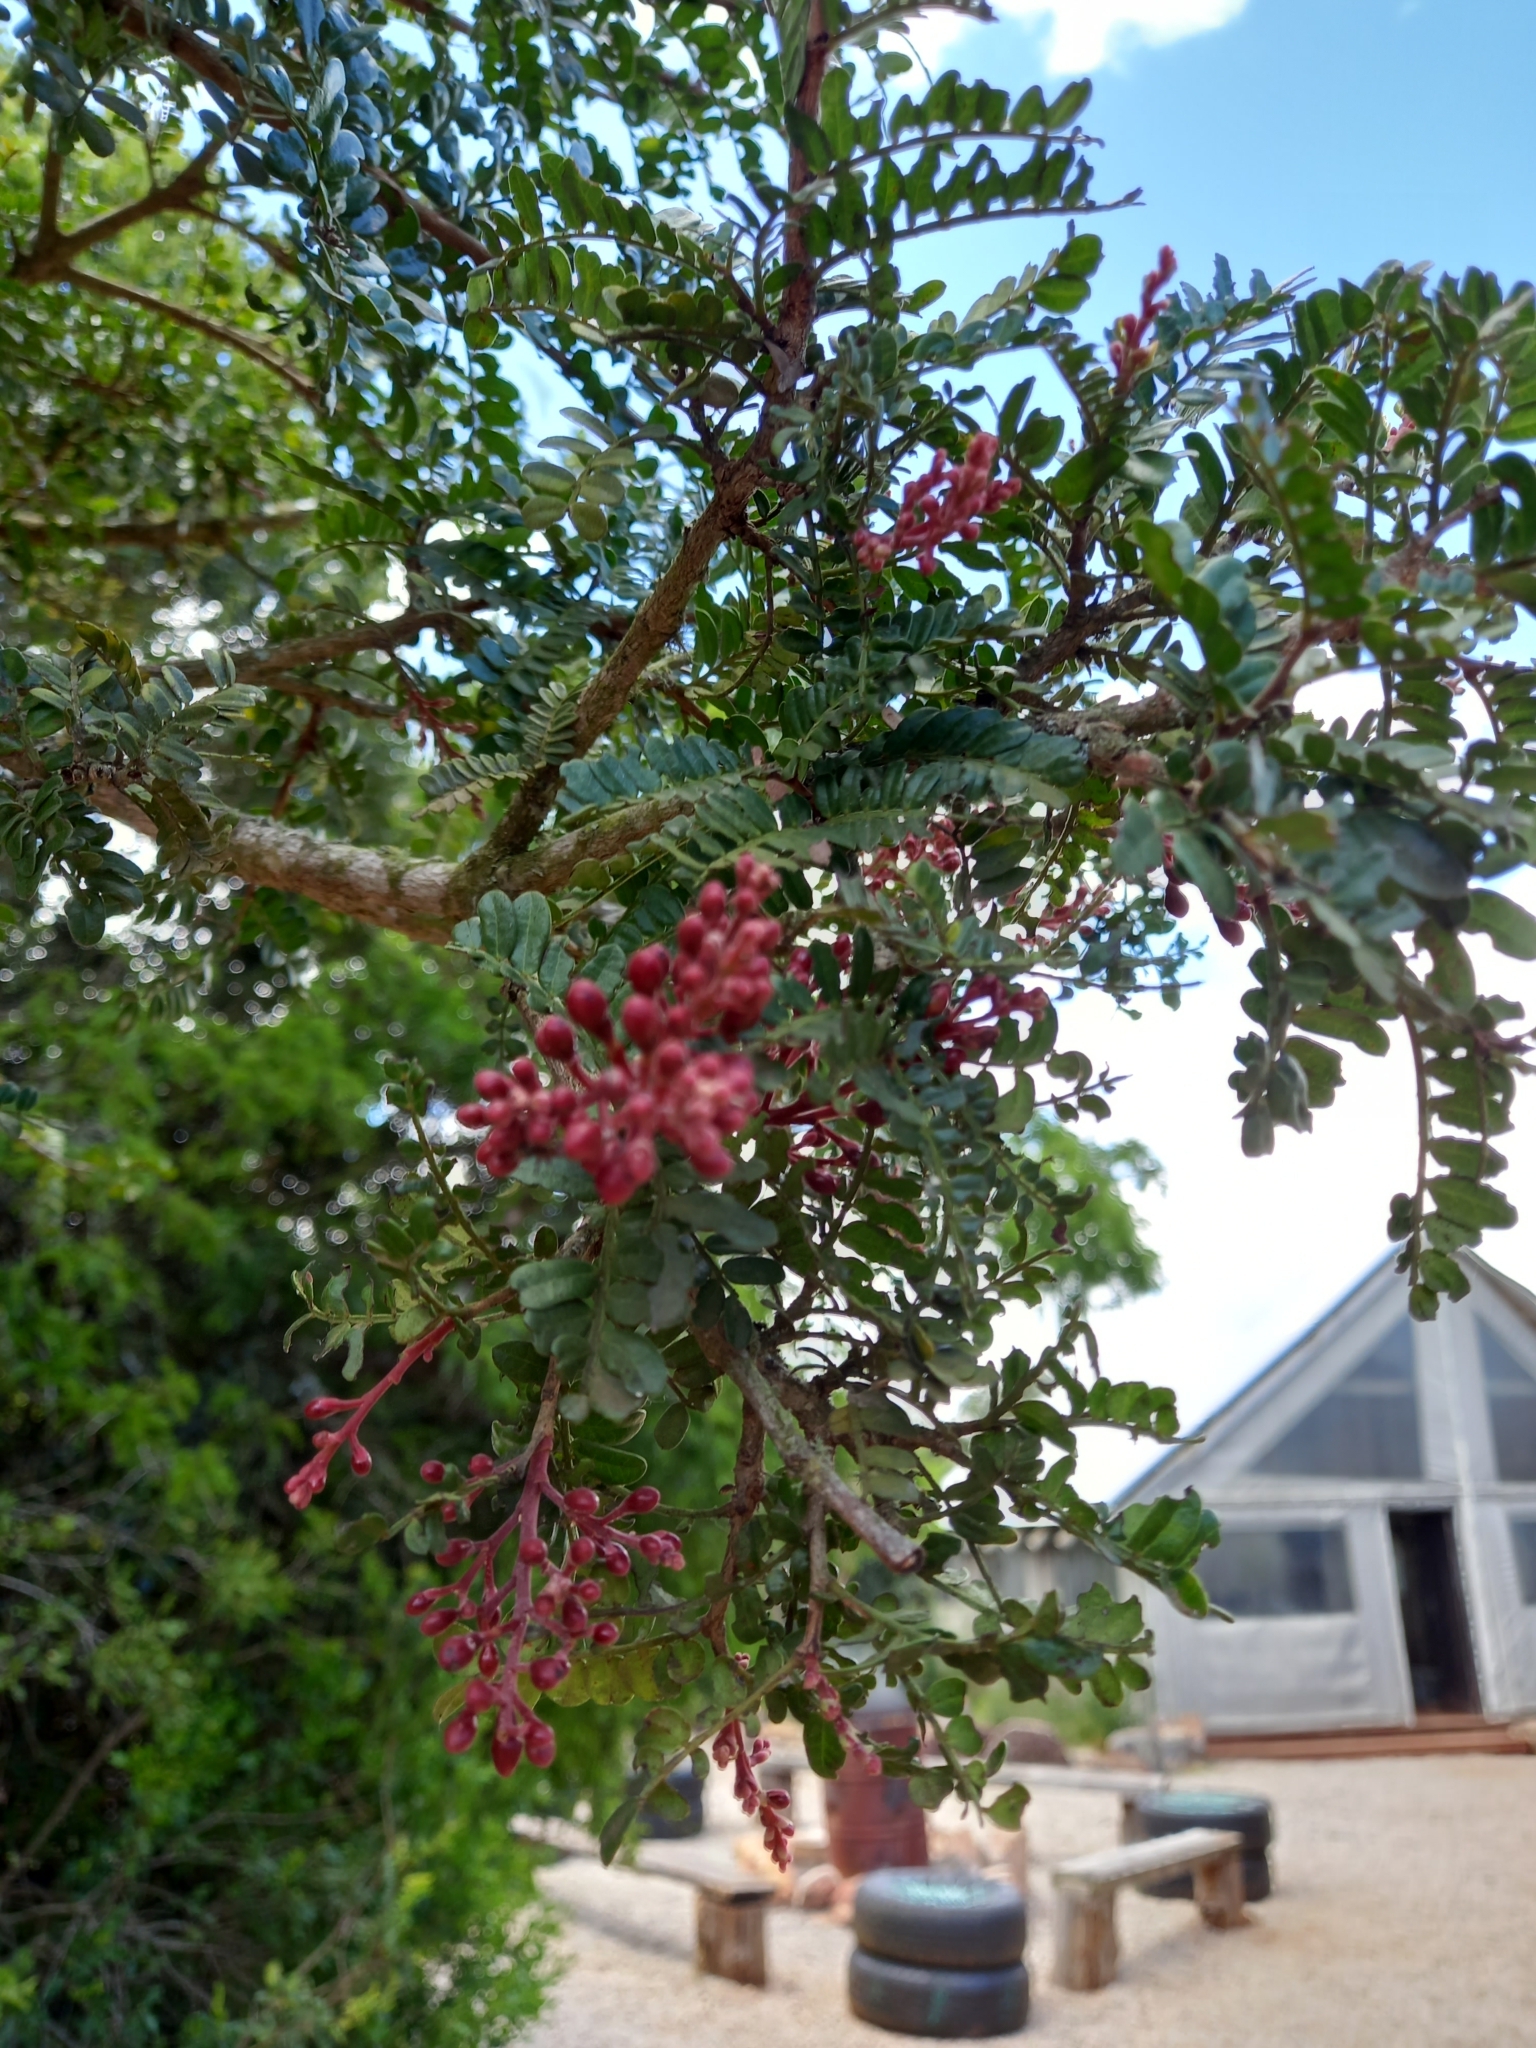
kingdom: Plantae
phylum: Tracheophyta
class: Magnoliopsida
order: Fabales
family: Fabaceae
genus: Schotia
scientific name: Schotia afra
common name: Hottentot's bean
